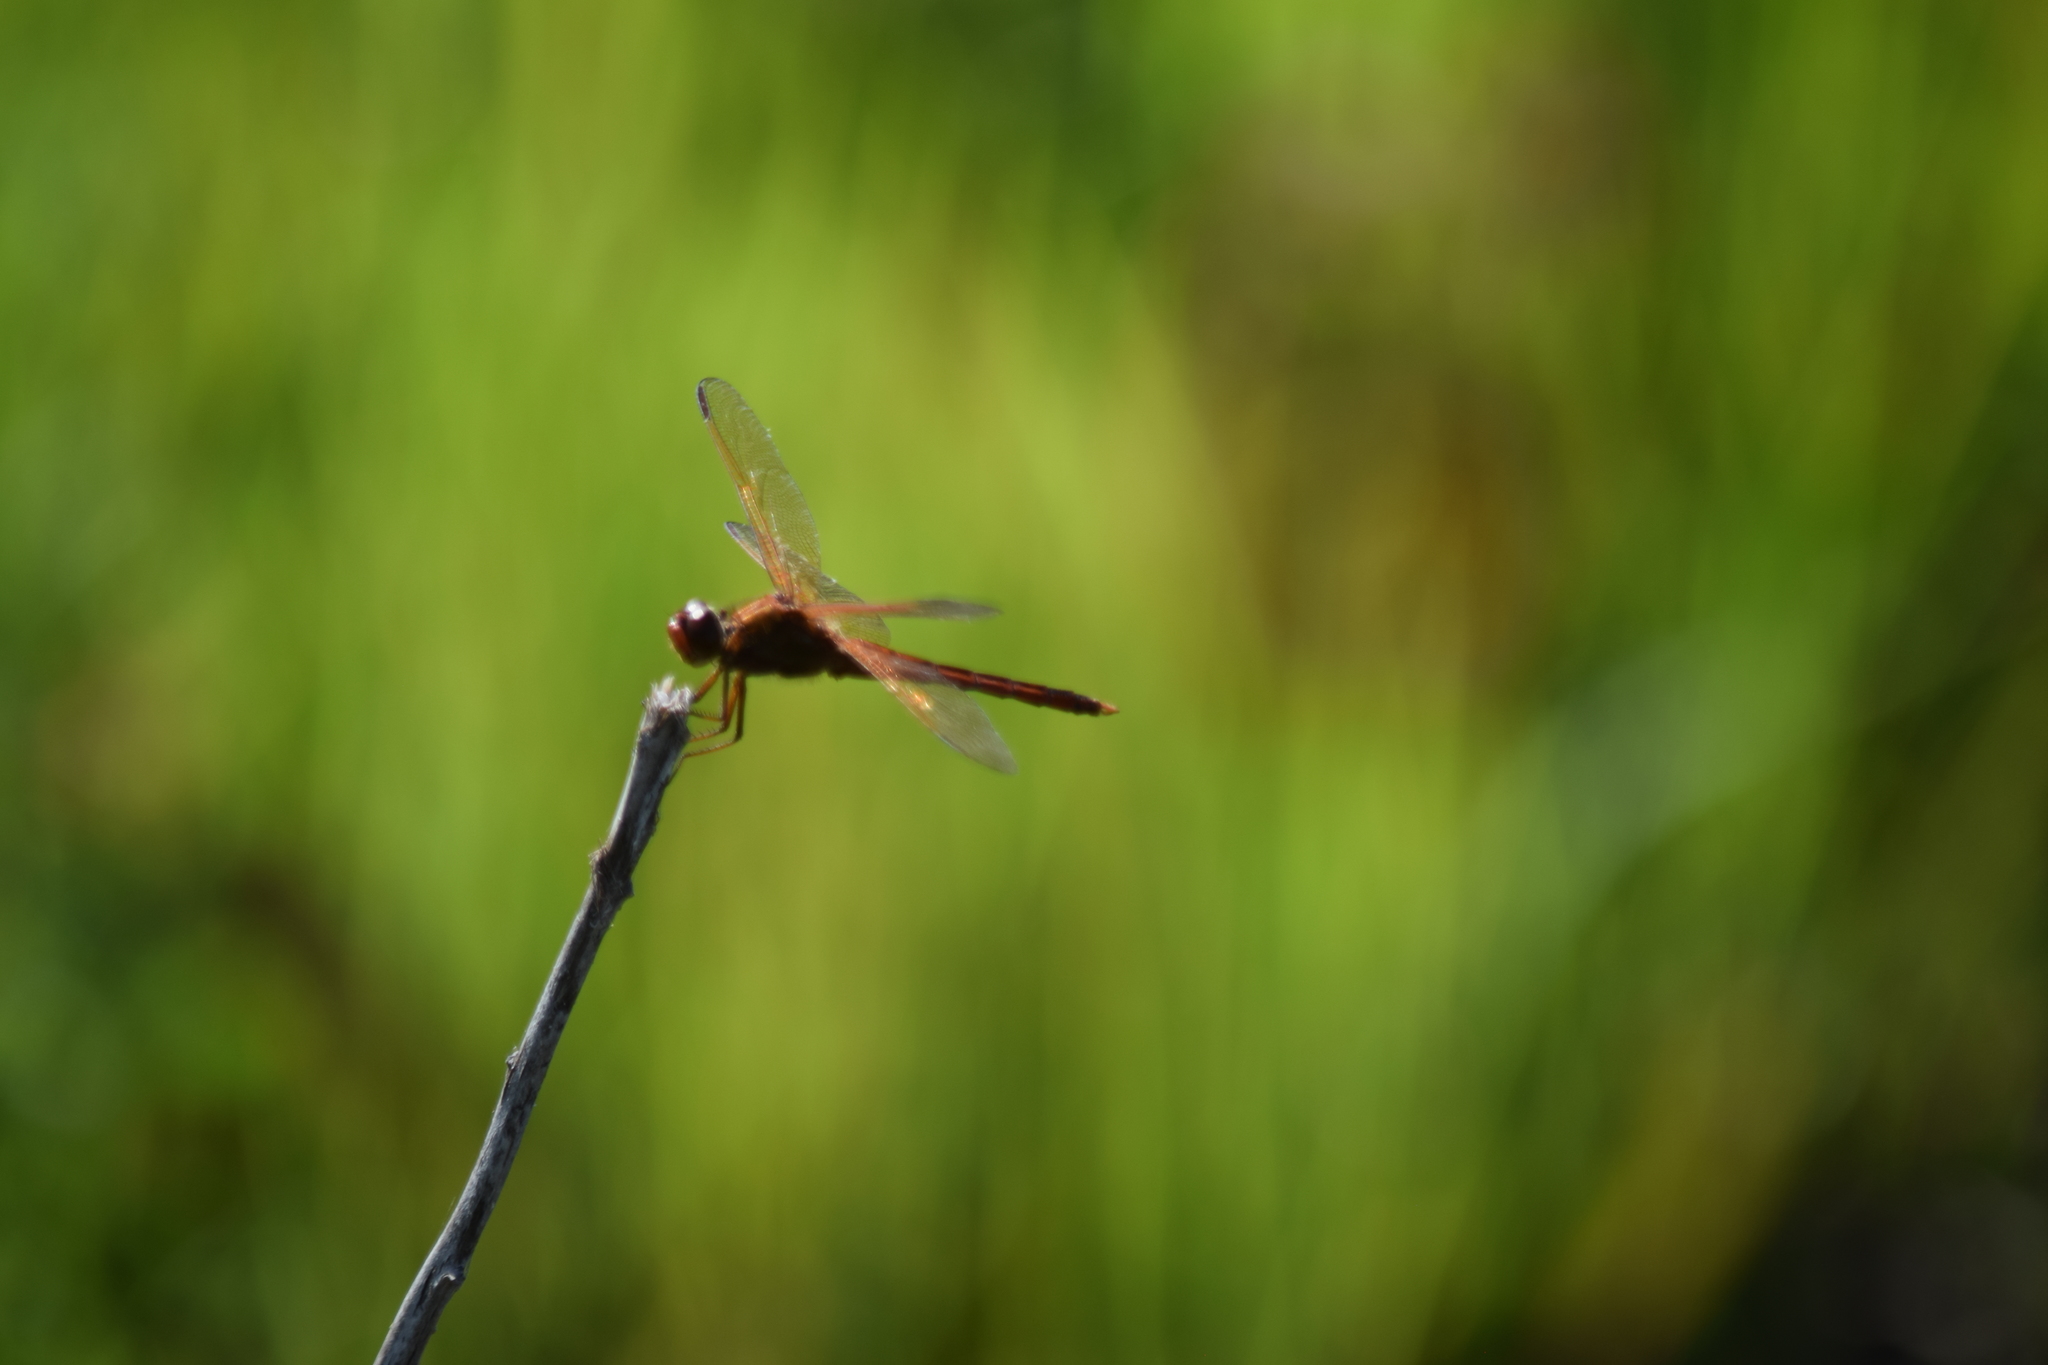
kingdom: Animalia
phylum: Arthropoda
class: Insecta
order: Odonata
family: Libellulidae
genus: Libellula
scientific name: Libellula needhami
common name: Needham's skimmer
